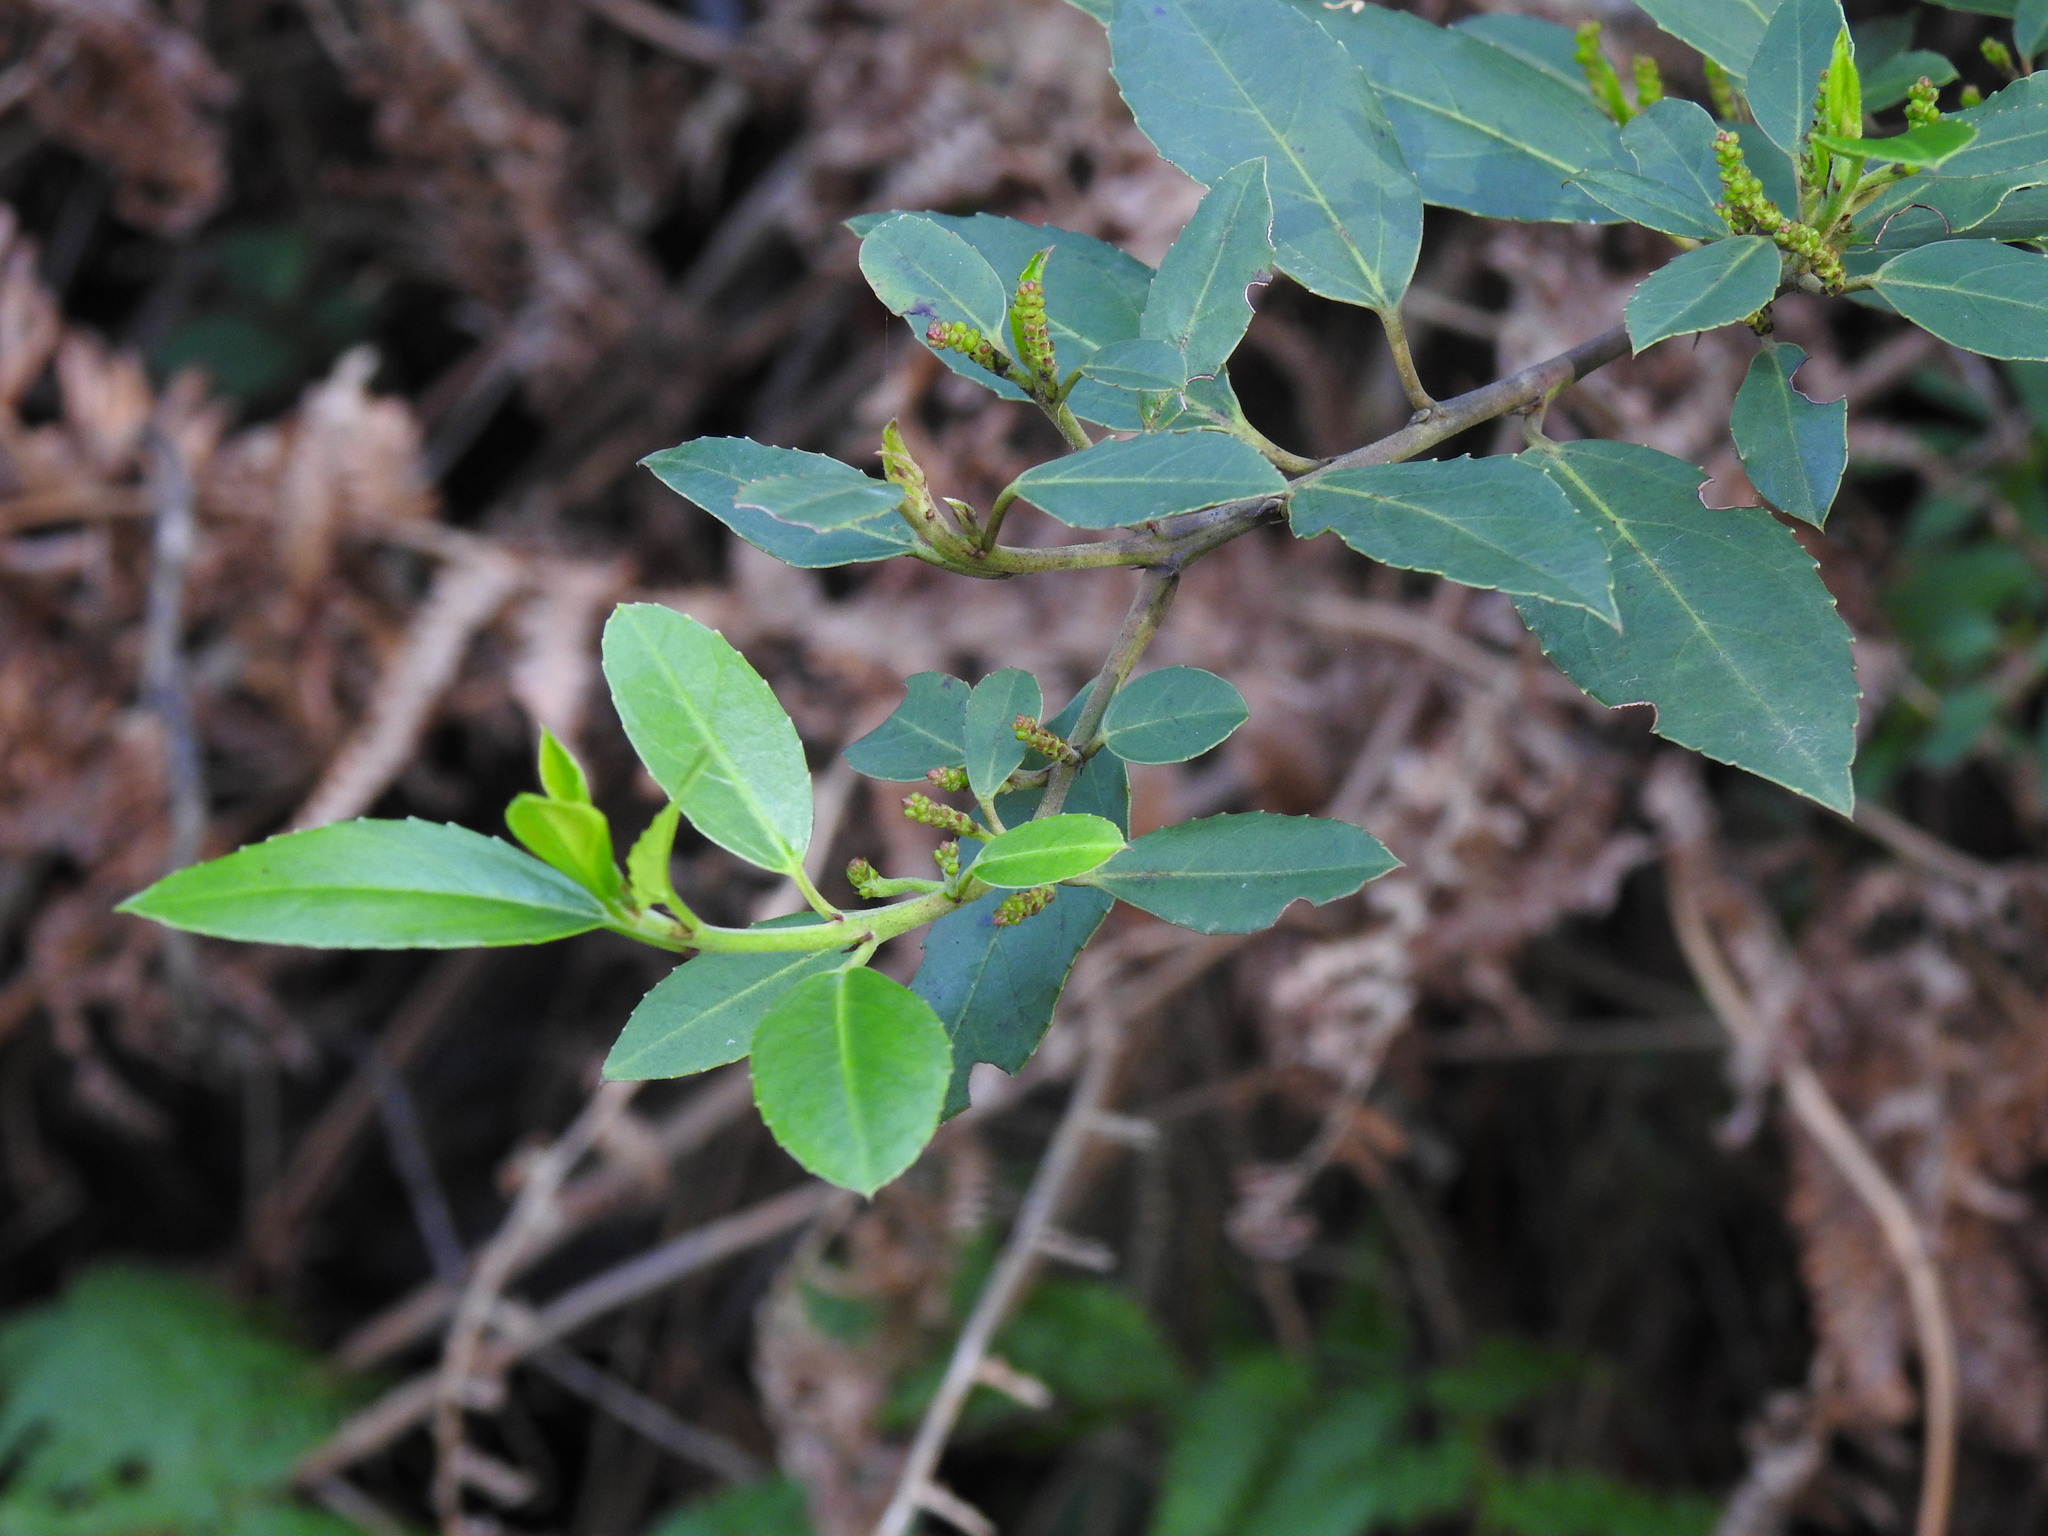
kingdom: Plantae
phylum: Tracheophyta
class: Magnoliopsida
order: Rosales
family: Rhamnaceae
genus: Rhamnus
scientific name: Rhamnus alaternus
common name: Mediterranean buckthorn
